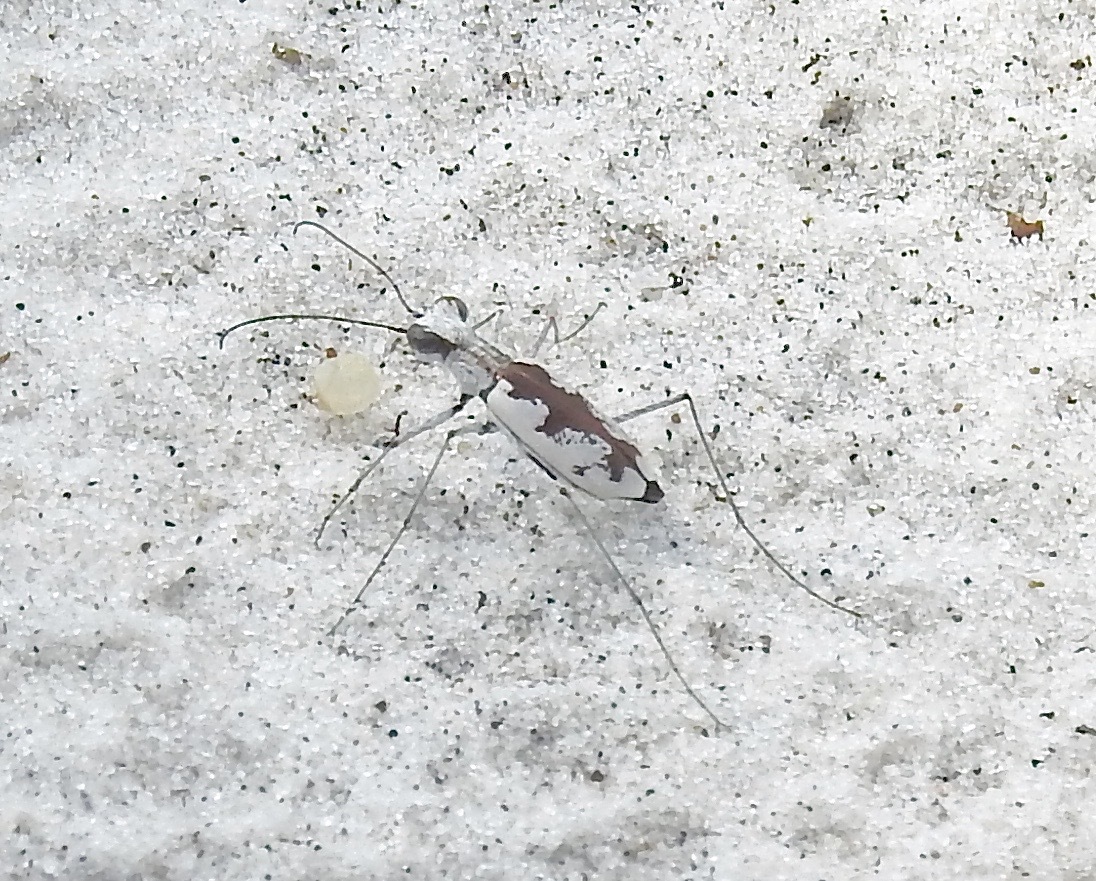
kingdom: Animalia
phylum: Arthropoda
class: Insecta
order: Coleoptera
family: Carabidae
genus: Ellipsoptera
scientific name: Ellipsoptera hirtilabris
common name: Moustached tiger beetle
